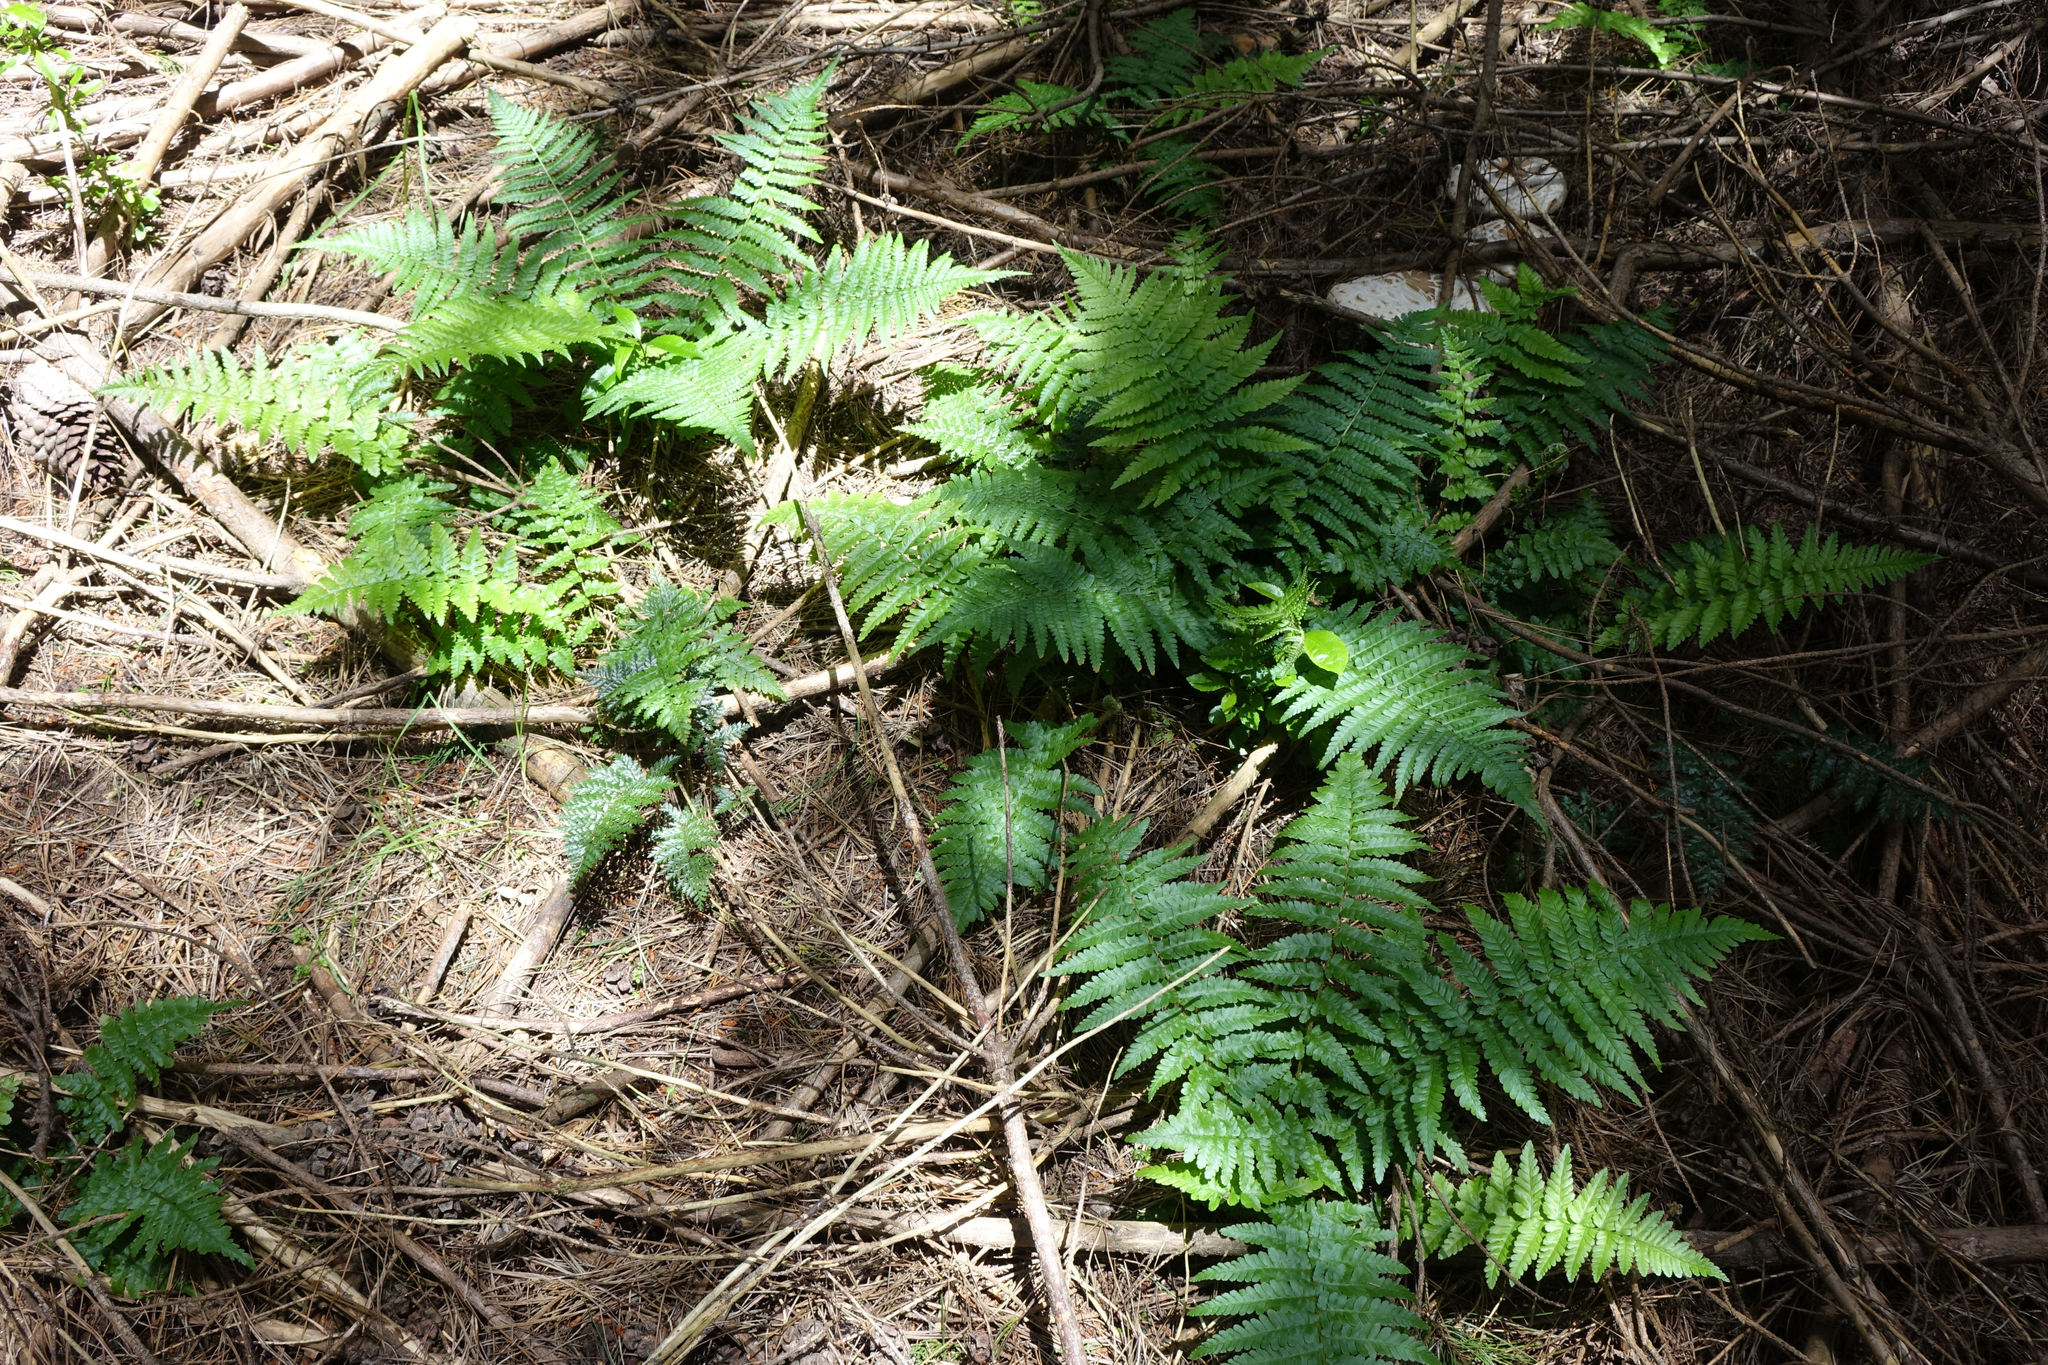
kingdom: Plantae
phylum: Tracheophyta
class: Polypodiopsida
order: Polypodiales
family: Dryopteridaceae
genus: Dryopteris
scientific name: Dryopteris filix-mas
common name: Male fern
